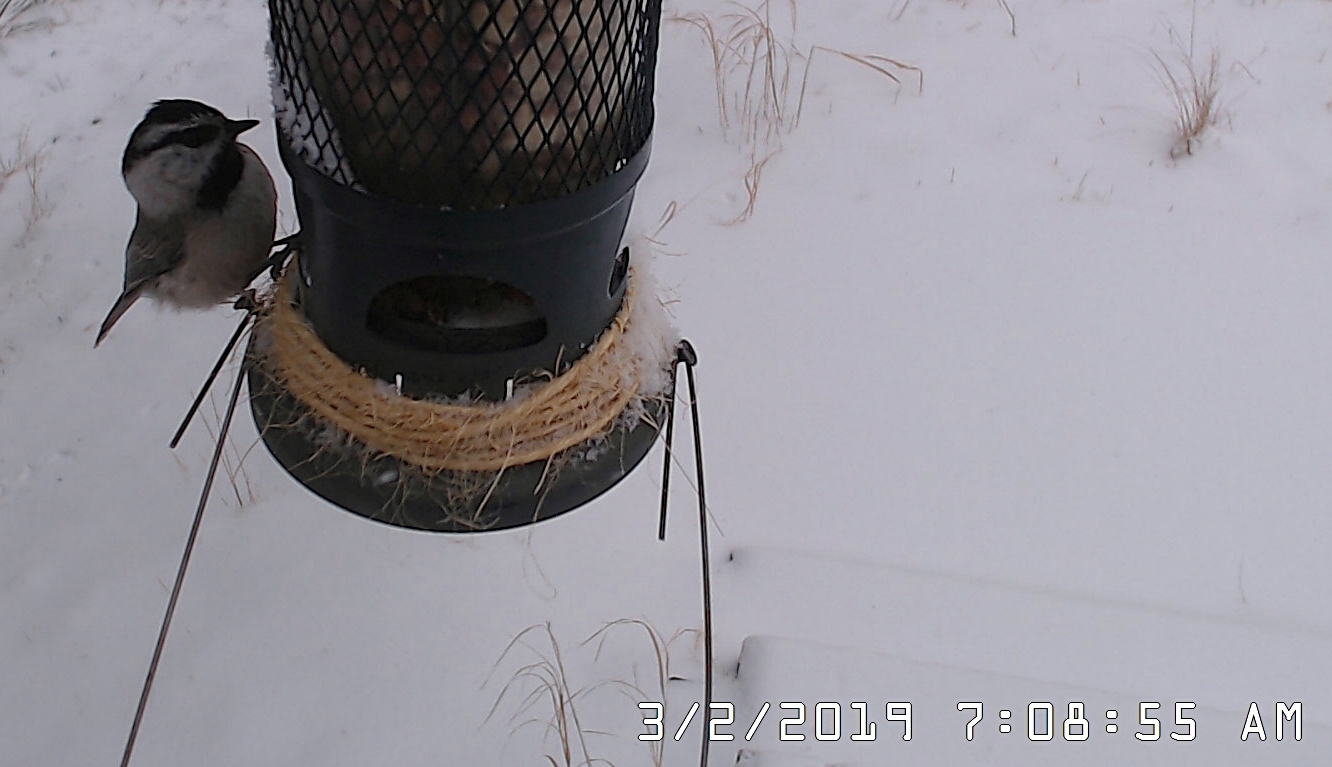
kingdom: Animalia
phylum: Chordata
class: Aves
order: Passeriformes
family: Paridae
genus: Poecile
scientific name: Poecile gambeli
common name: Mountain chickadee
